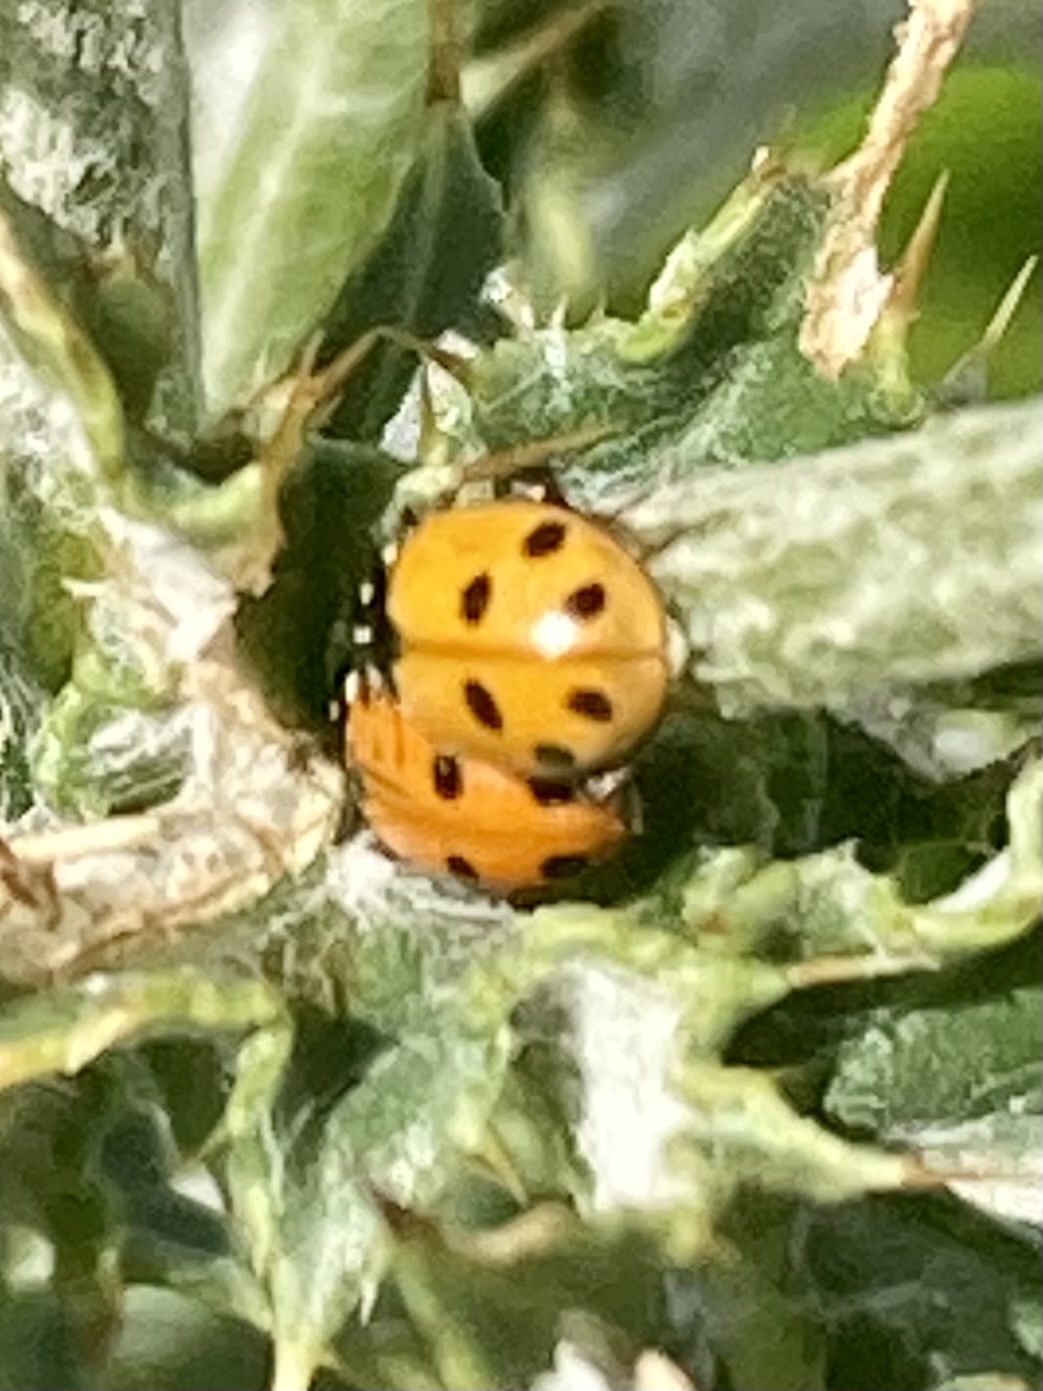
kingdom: Animalia
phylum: Arthropoda
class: Insecta
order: Coleoptera
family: Coccinellidae
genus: Hippodamia
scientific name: Hippodamia variegata
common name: Ladybird beetle
